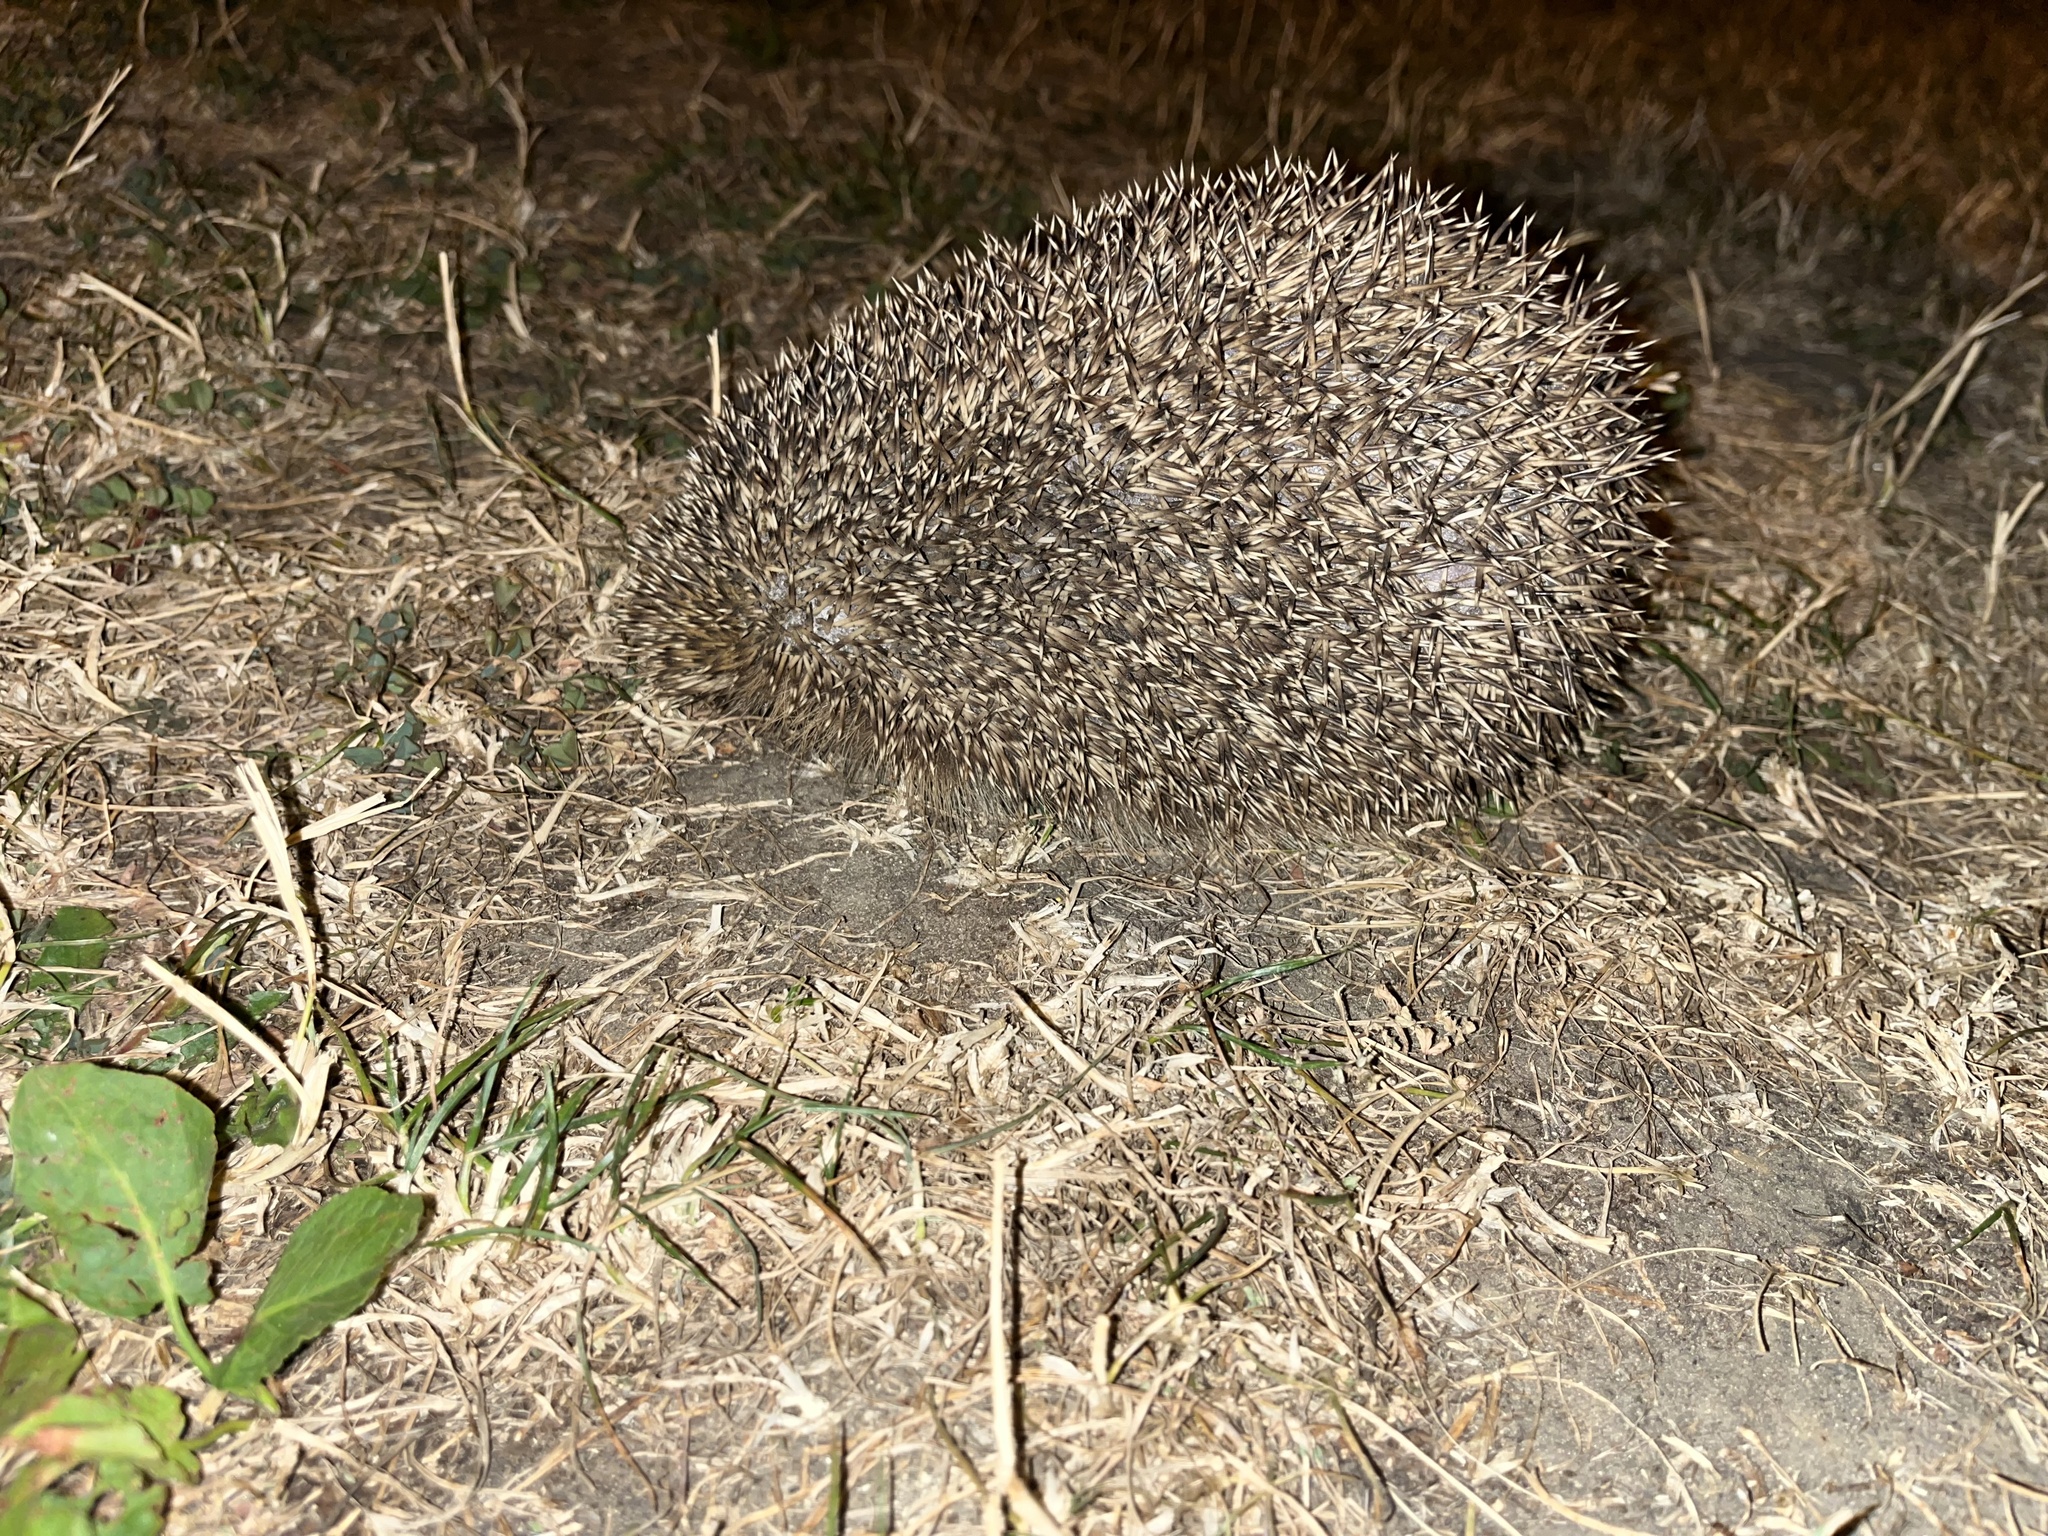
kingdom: Animalia
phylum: Chordata
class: Mammalia
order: Erinaceomorpha
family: Erinaceidae
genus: Erinaceus
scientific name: Erinaceus europaeus
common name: West european hedgehog
